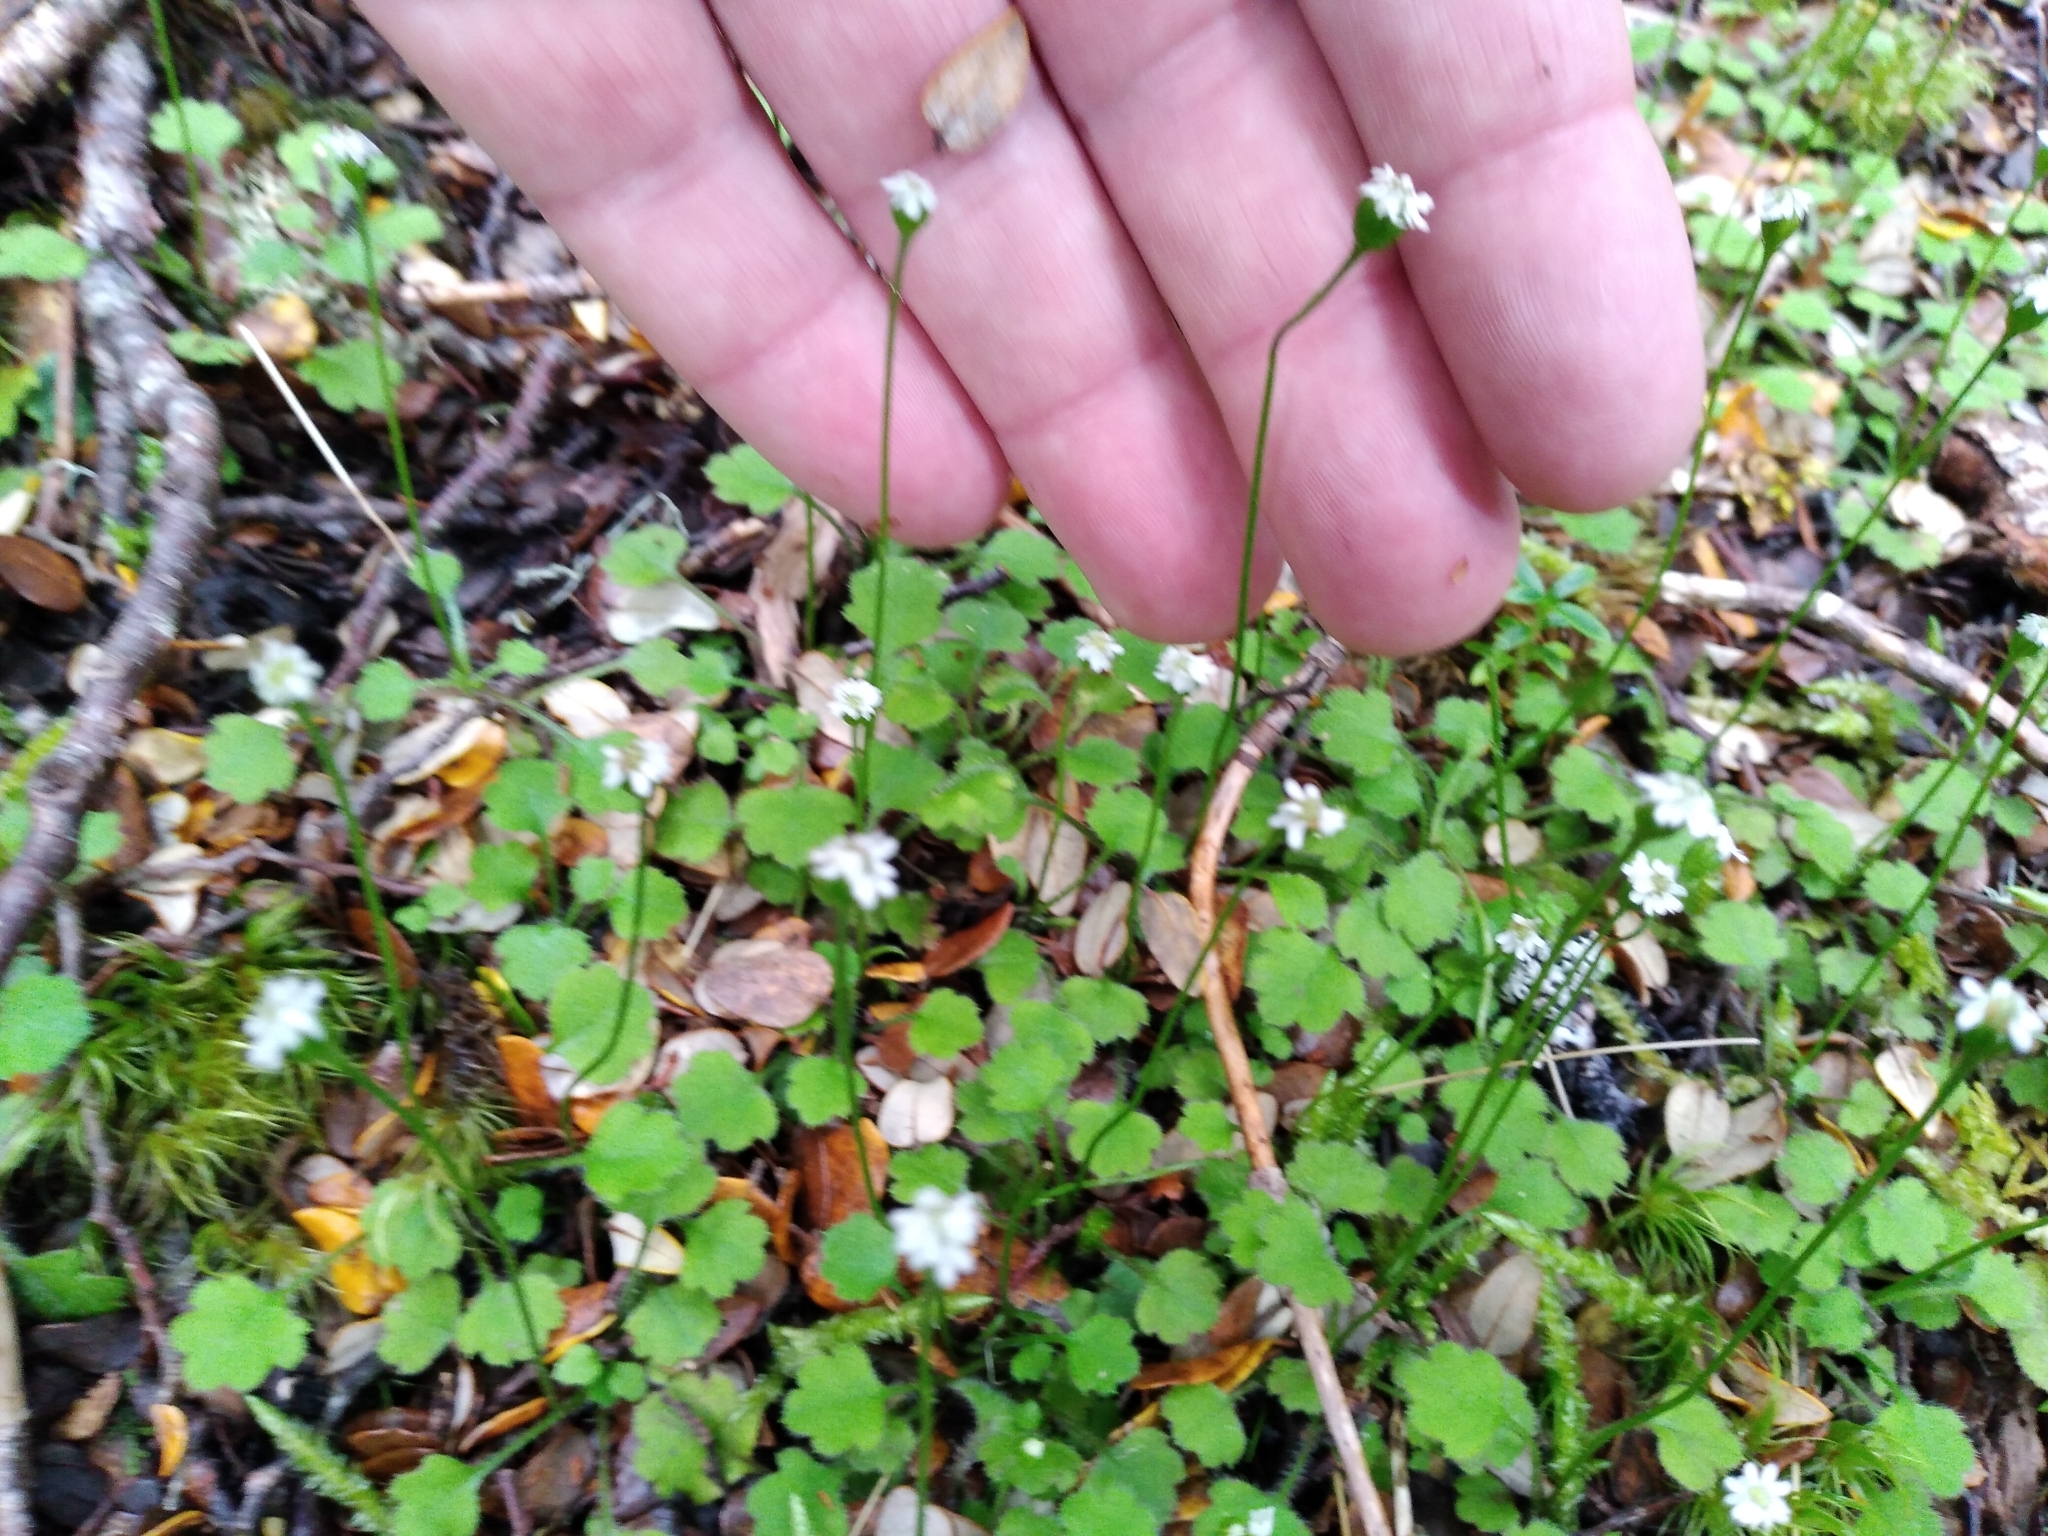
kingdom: Plantae
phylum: Tracheophyta
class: Magnoliopsida
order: Asterales
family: Asteraceae
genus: Lagenophora
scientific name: Lagenophora strangulata
